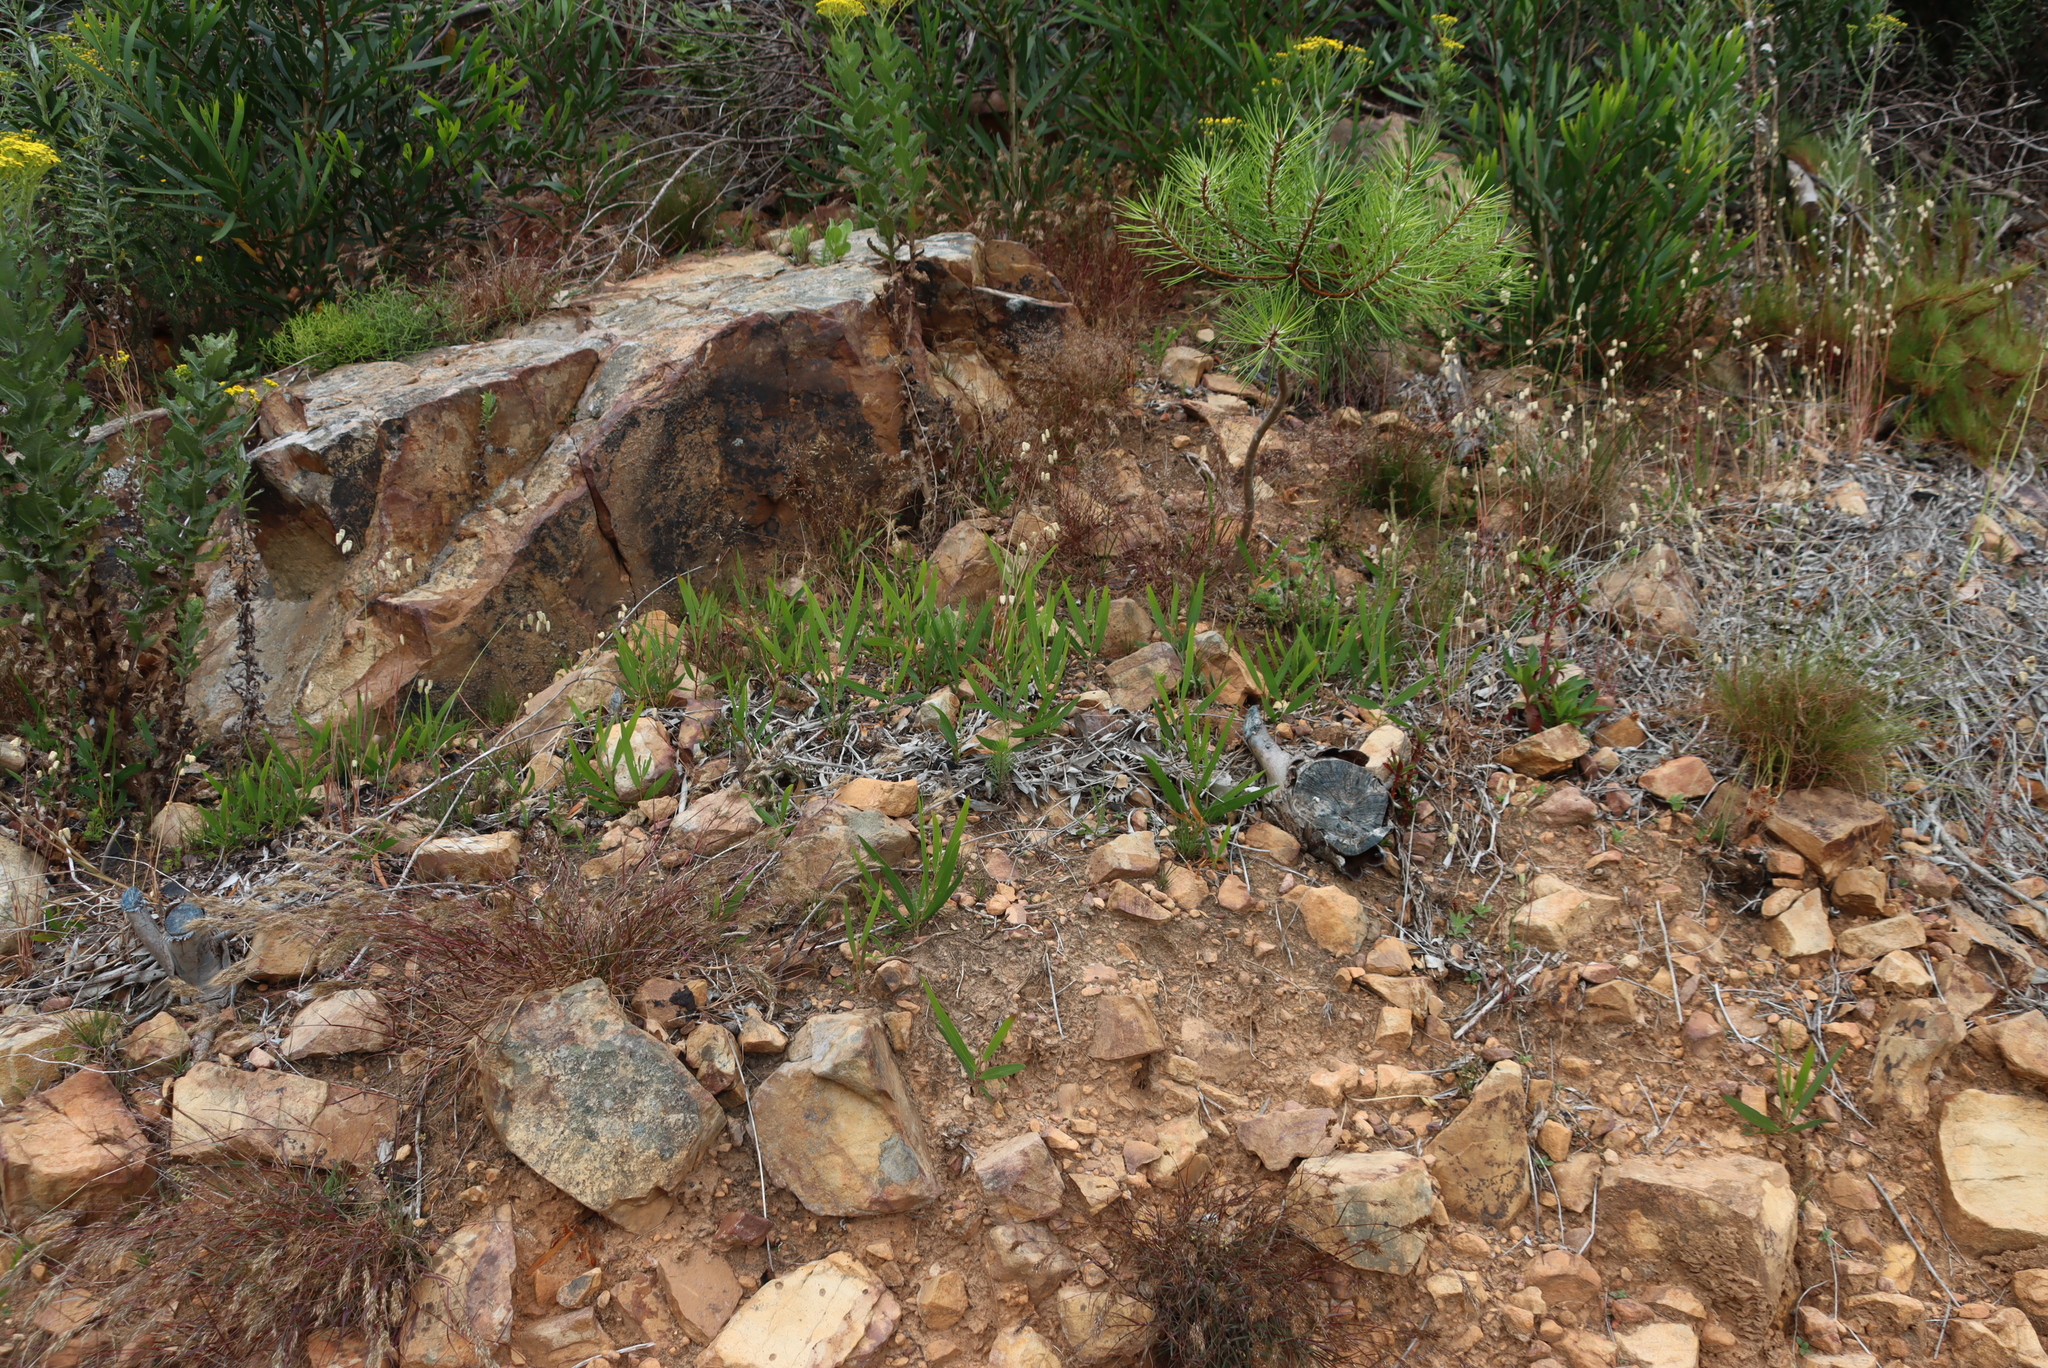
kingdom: Plantae
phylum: Tracheophyta
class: Magnoliopsida
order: Fabales
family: Fabaceae
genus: Acacia
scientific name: Acacia longifolia
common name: Sydney golden wattle
